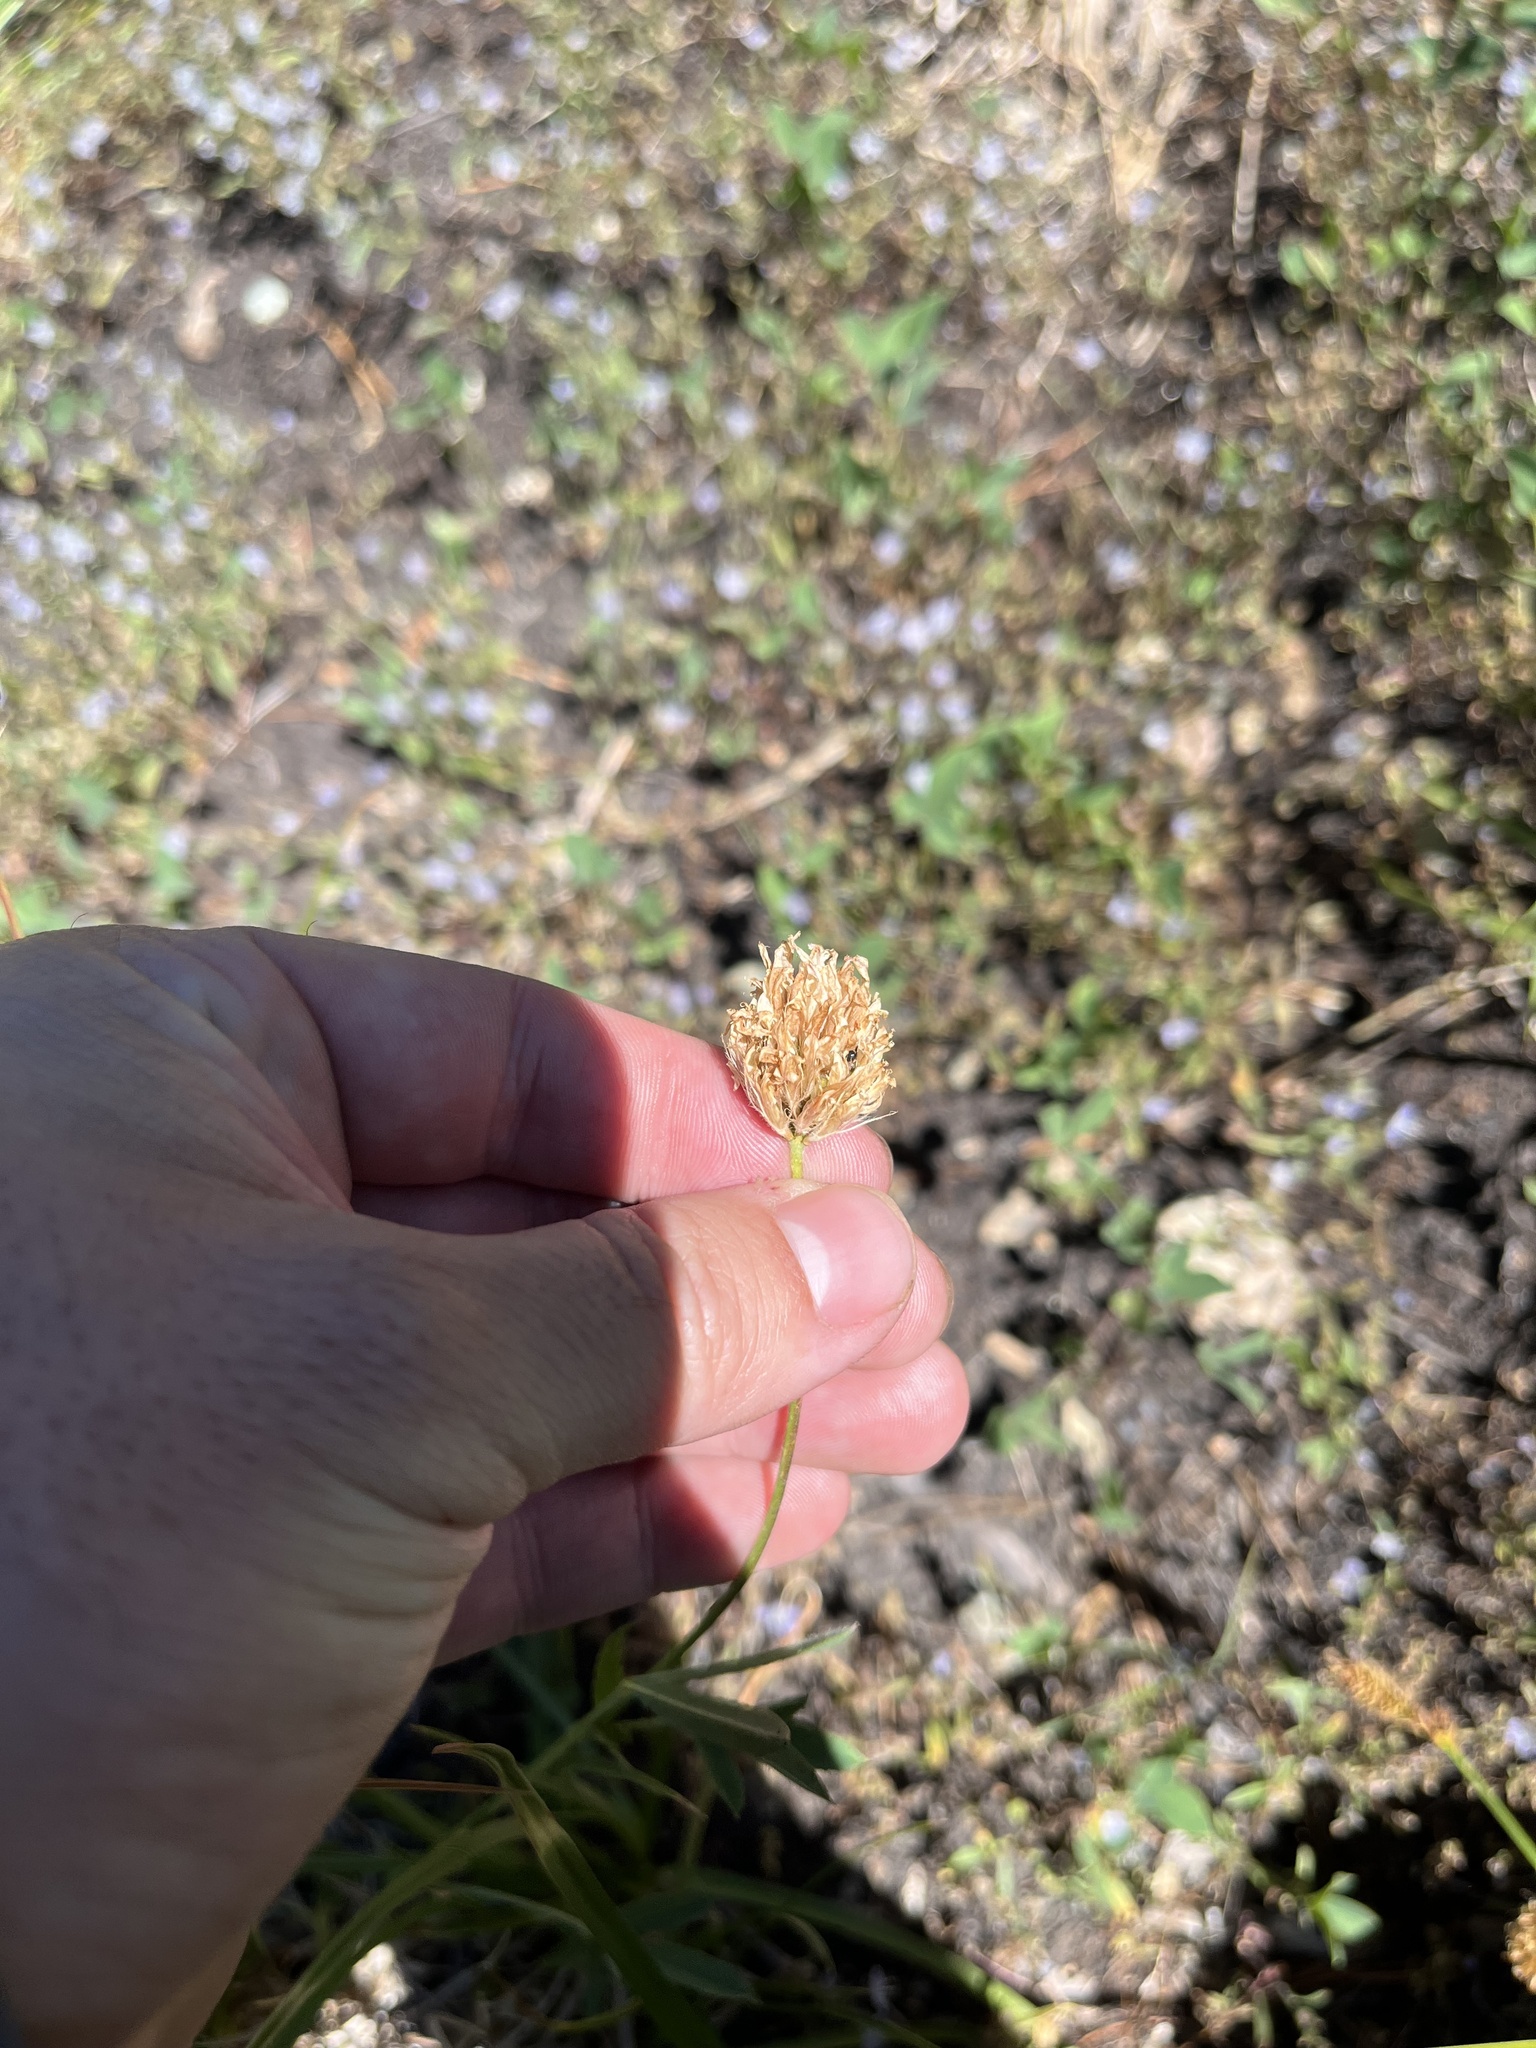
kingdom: Plantae
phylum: Tracheophyta
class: Magnoliopsida
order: Fabales
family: Fabaceae
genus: Trifolium
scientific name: Trifolium longipes
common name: Long-stalk clover
